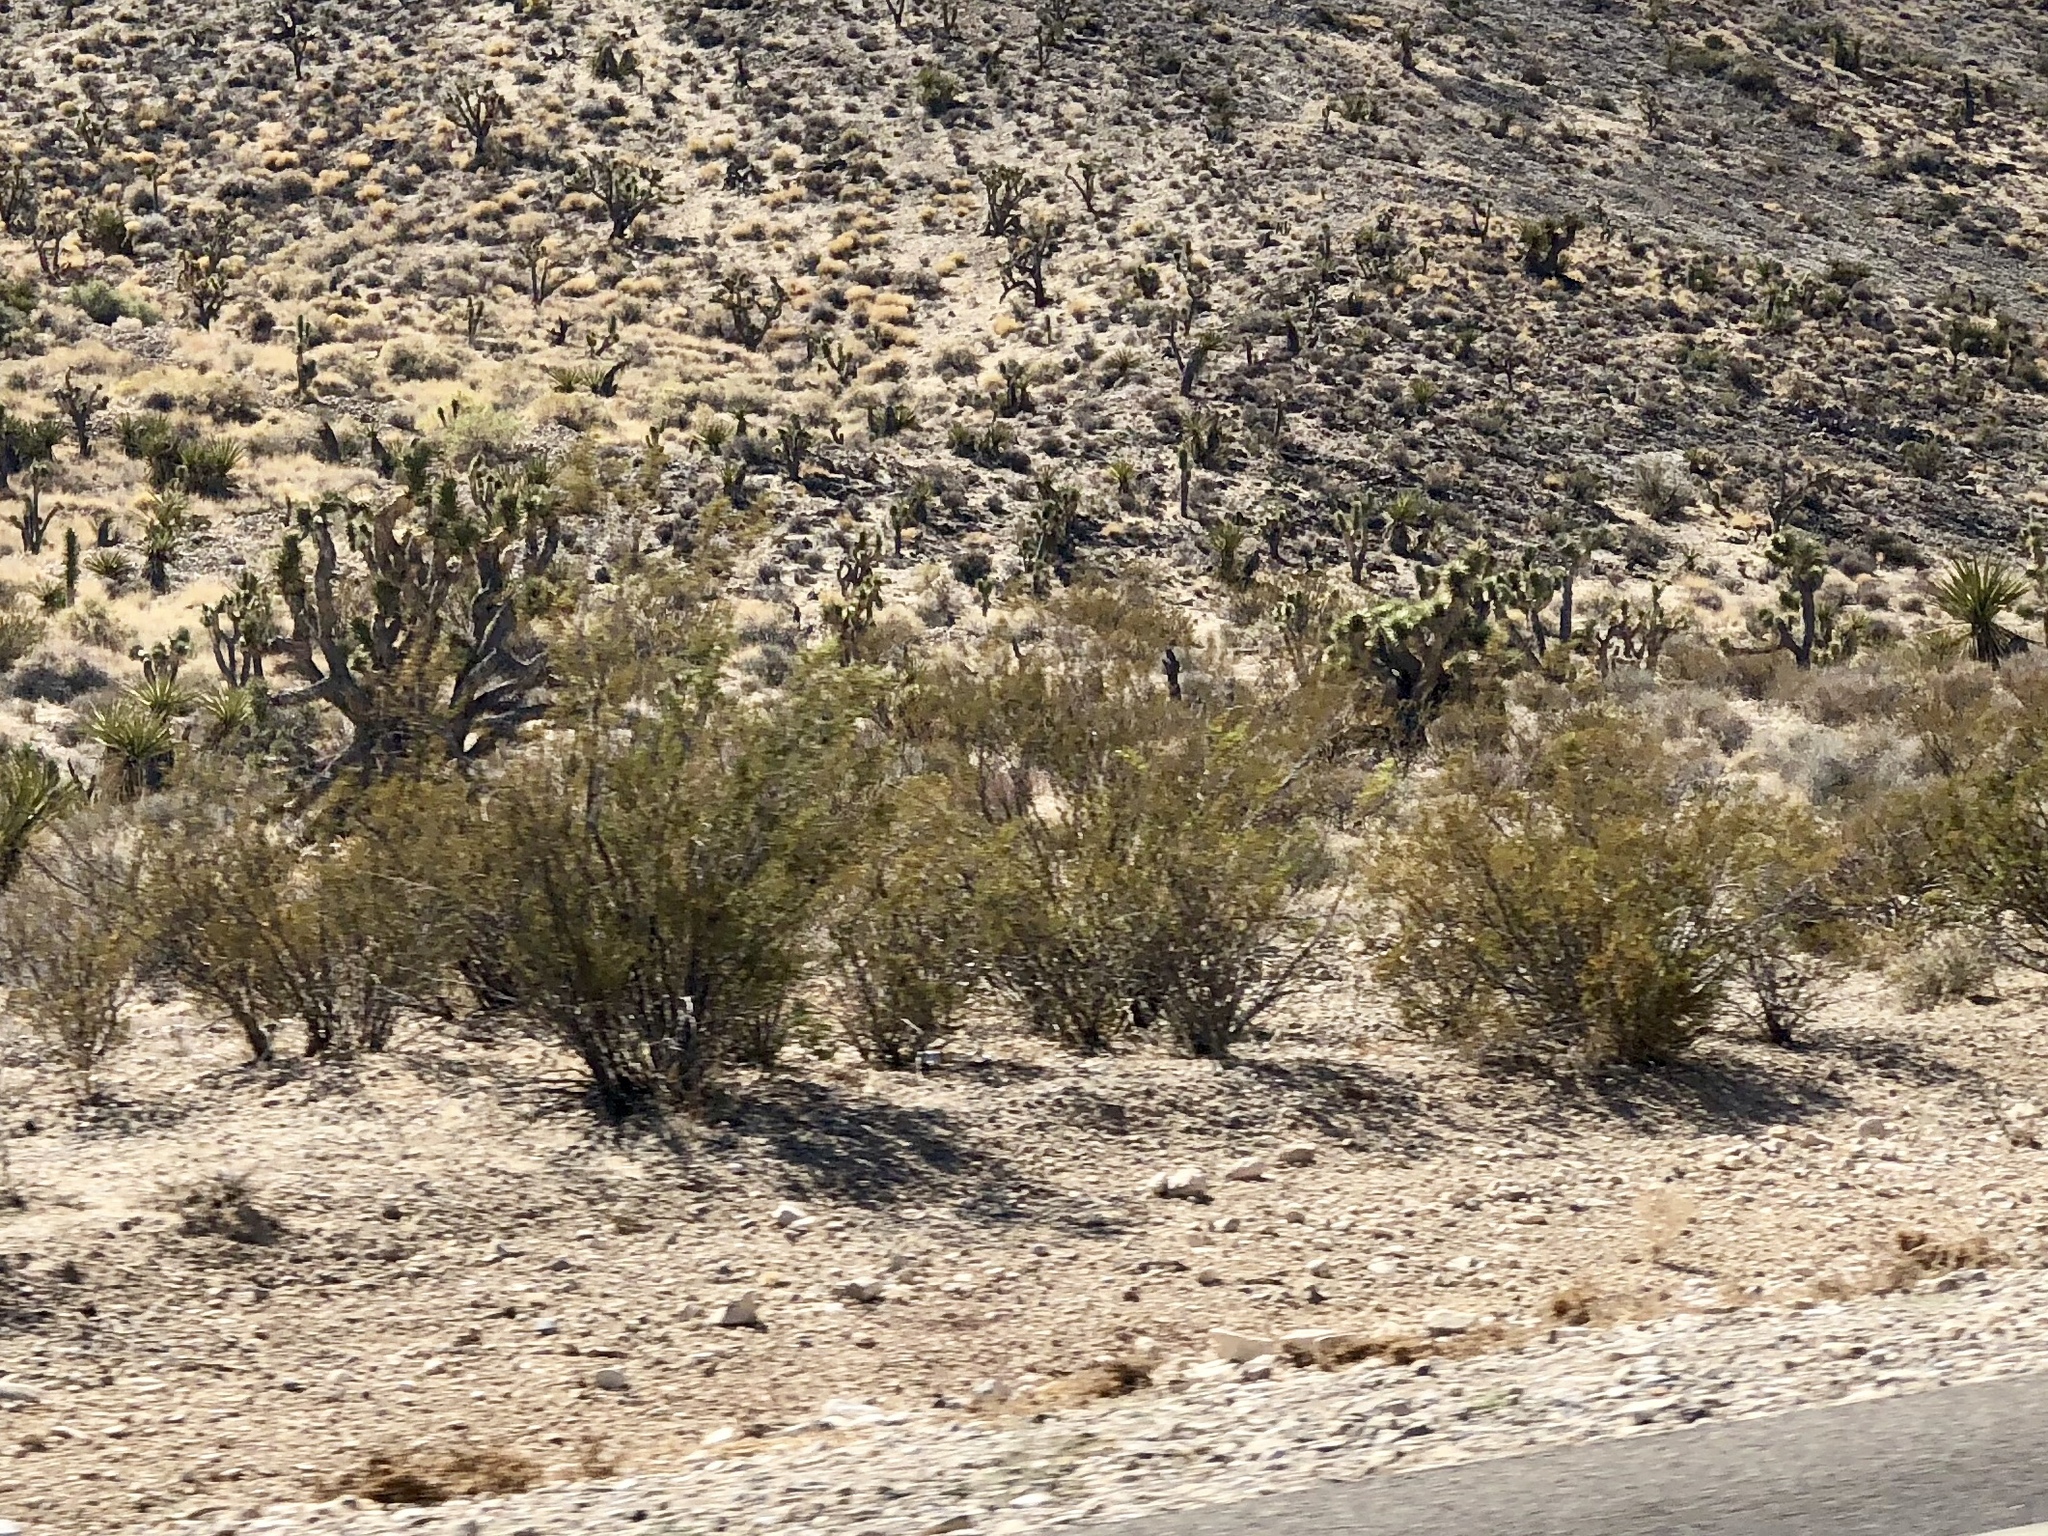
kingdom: Plantae
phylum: Tracheophyta
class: Magnoliopsida
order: Zygophyllales
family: Zygophyllaceae
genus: Larrea
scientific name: Larrea tridentata
